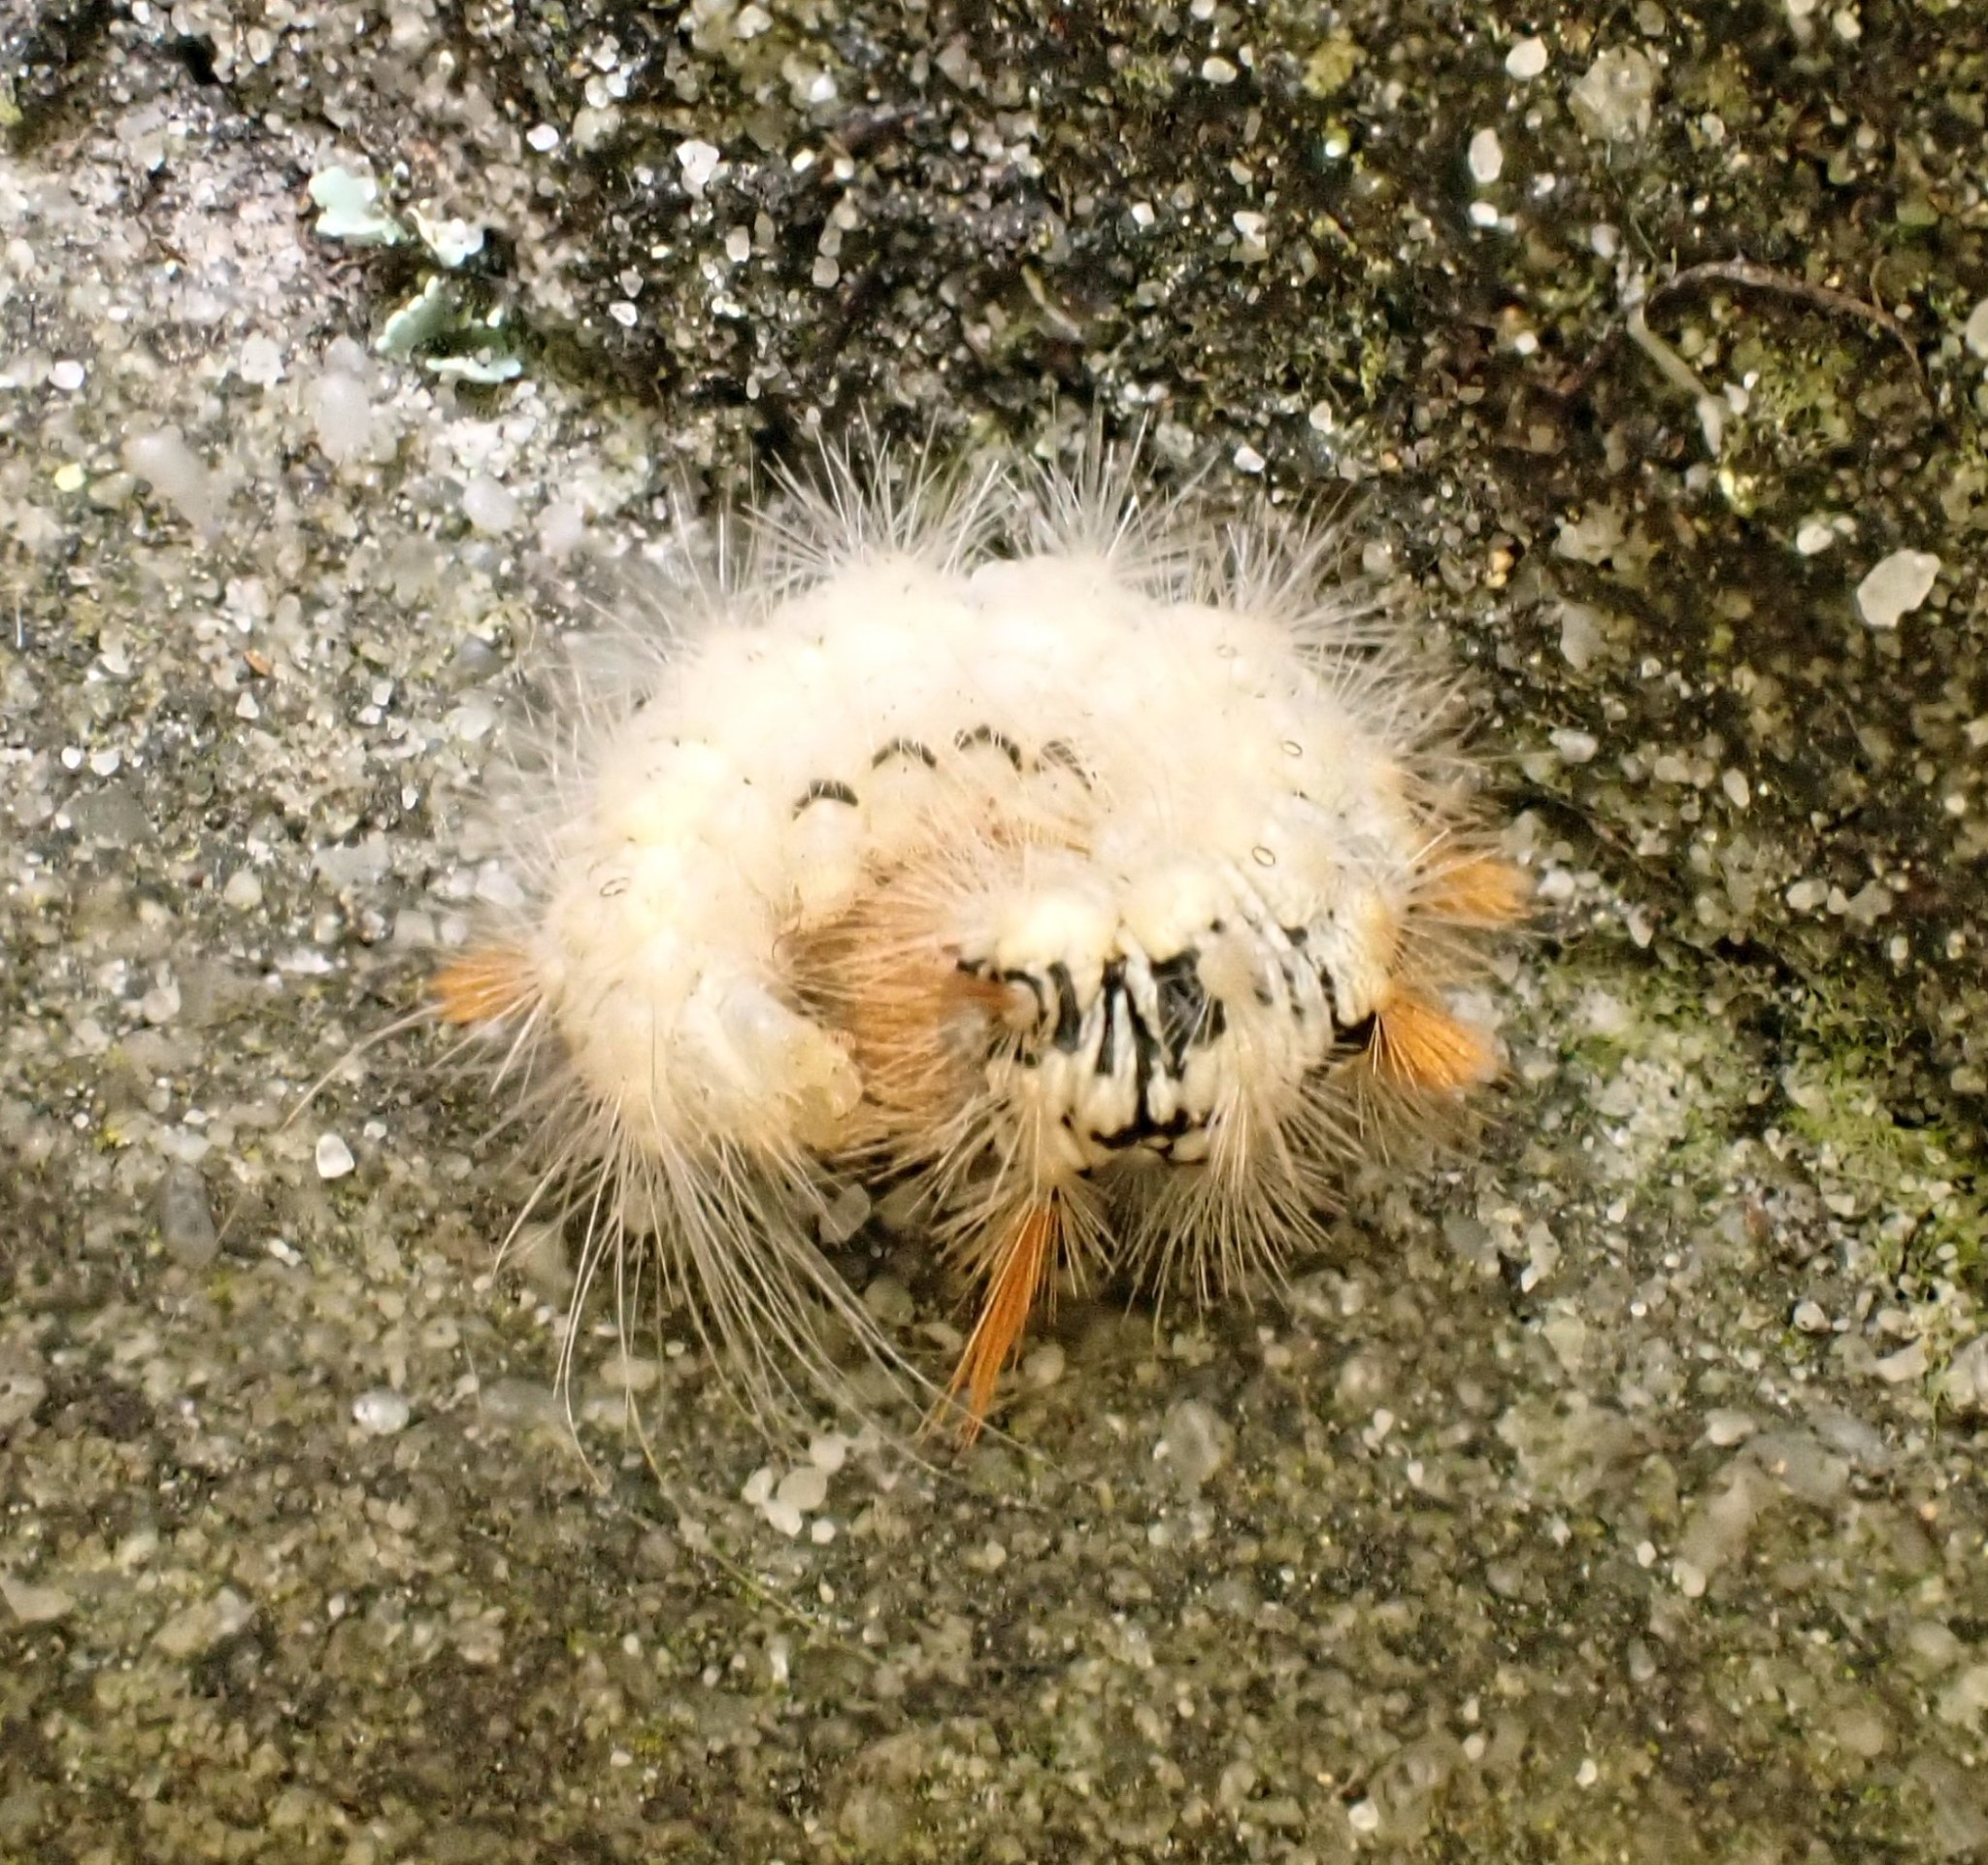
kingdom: Animalia
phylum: Arthropoda
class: Insecta
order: Lepidoptera
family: Noctuidae
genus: Colocasia
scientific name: Colocasia coryli
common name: Nut-tree tussock
